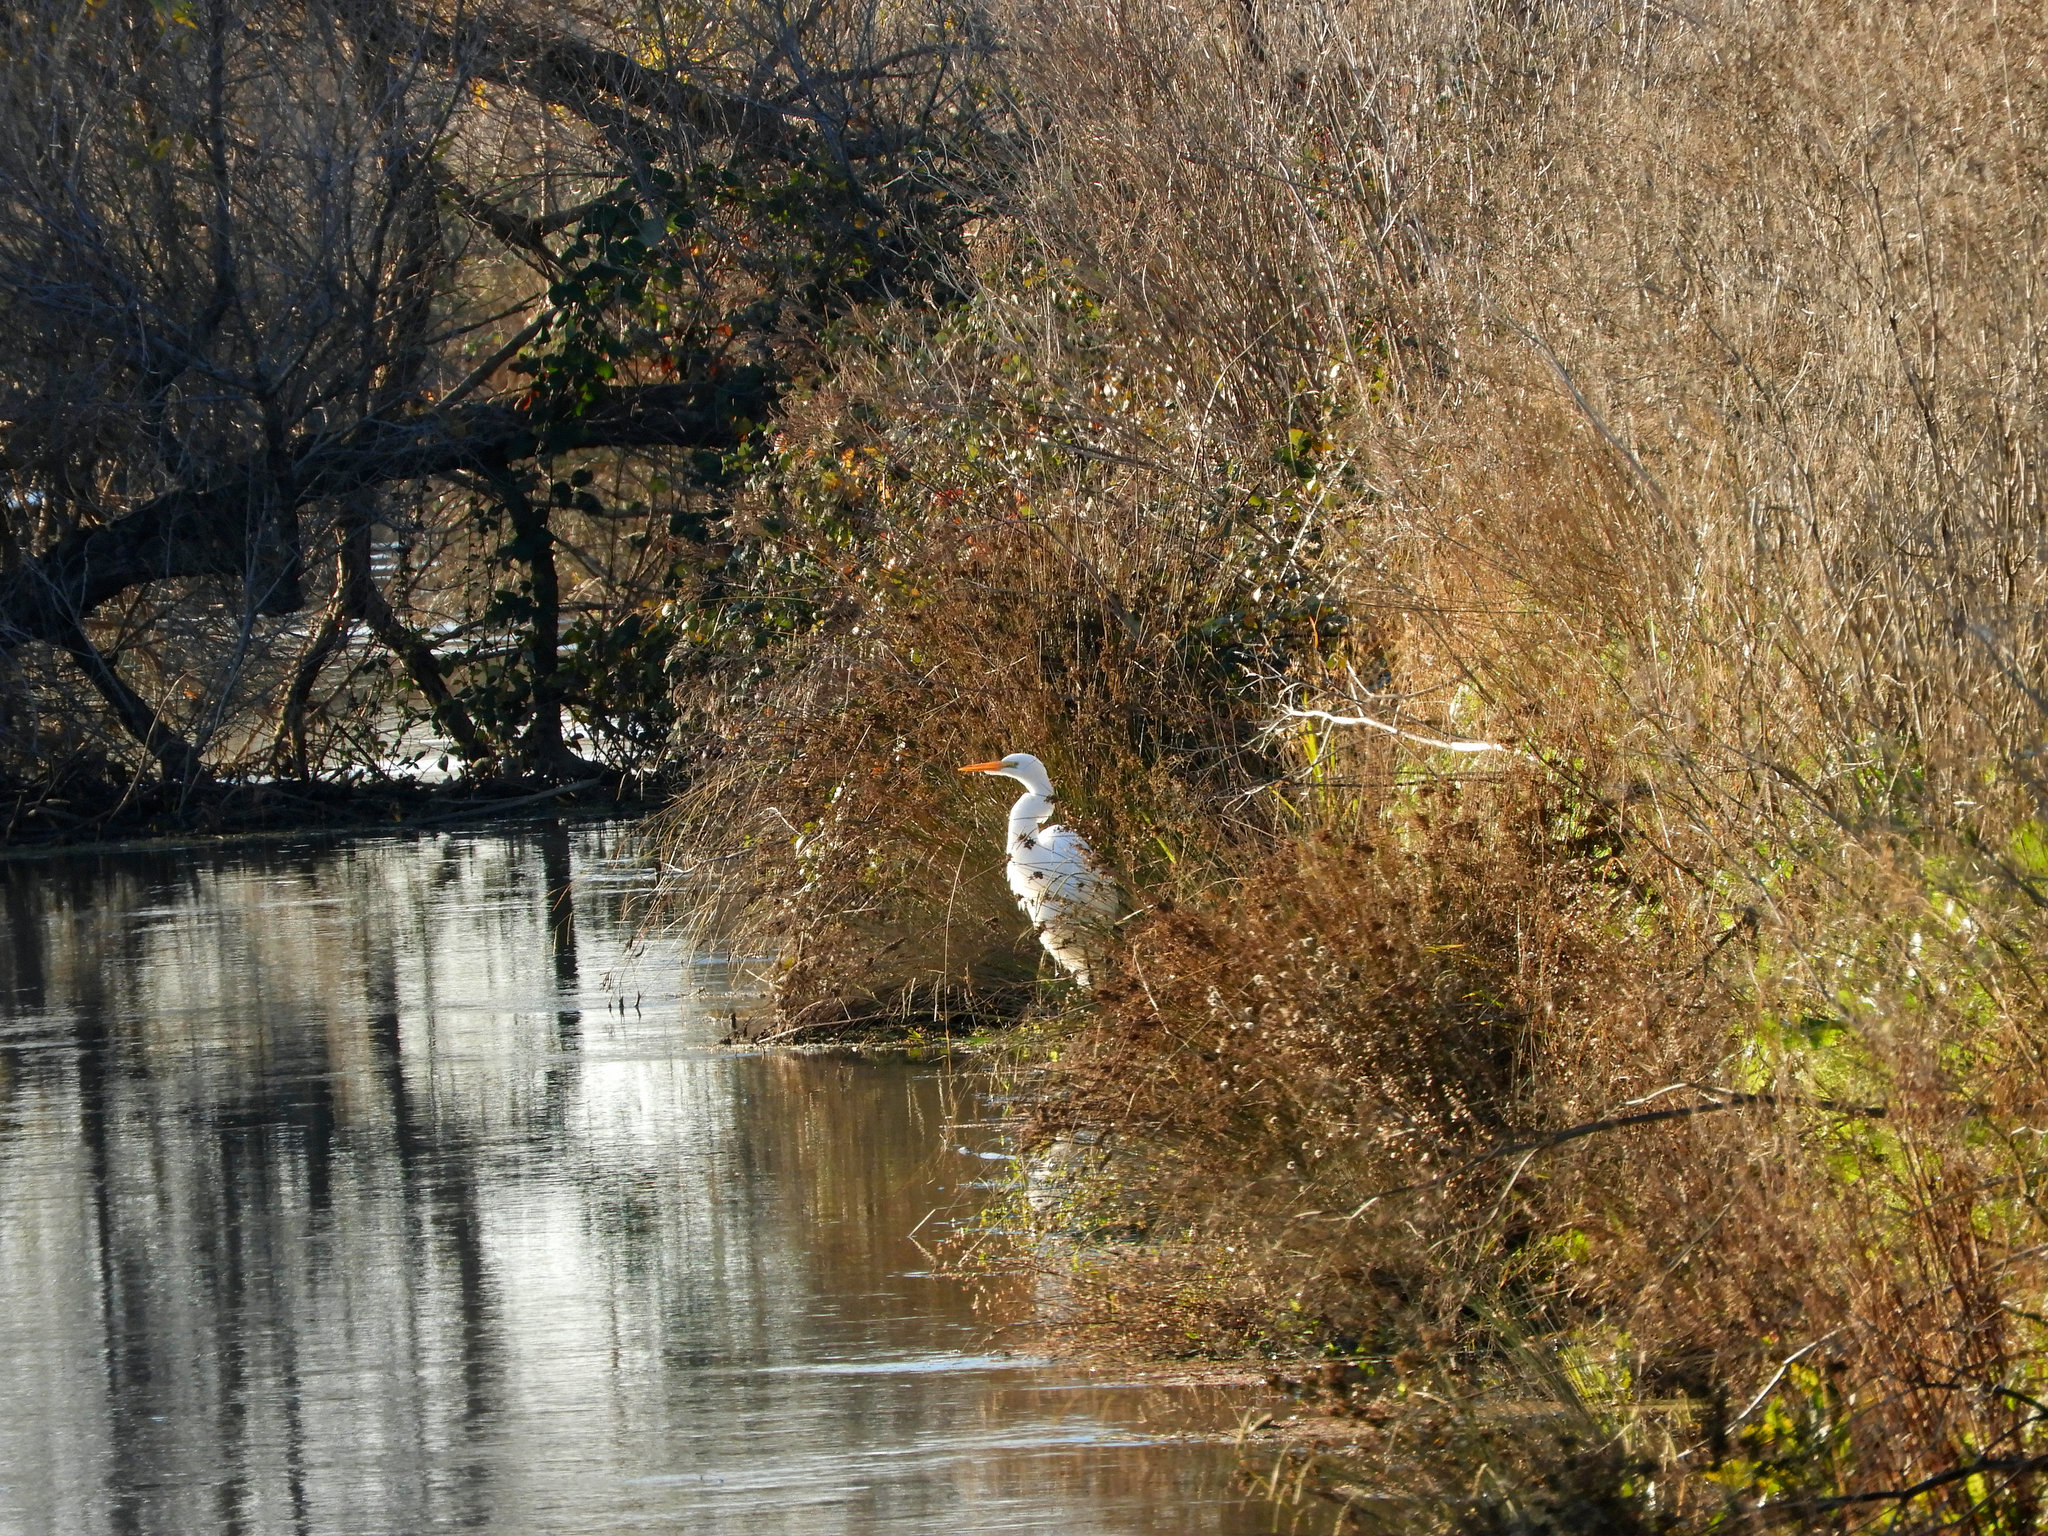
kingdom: Animalia
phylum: Chordata
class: Aves
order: Pelecaniformes
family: Ardeidae
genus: Ardea
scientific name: Ardea alba
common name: Great egret
